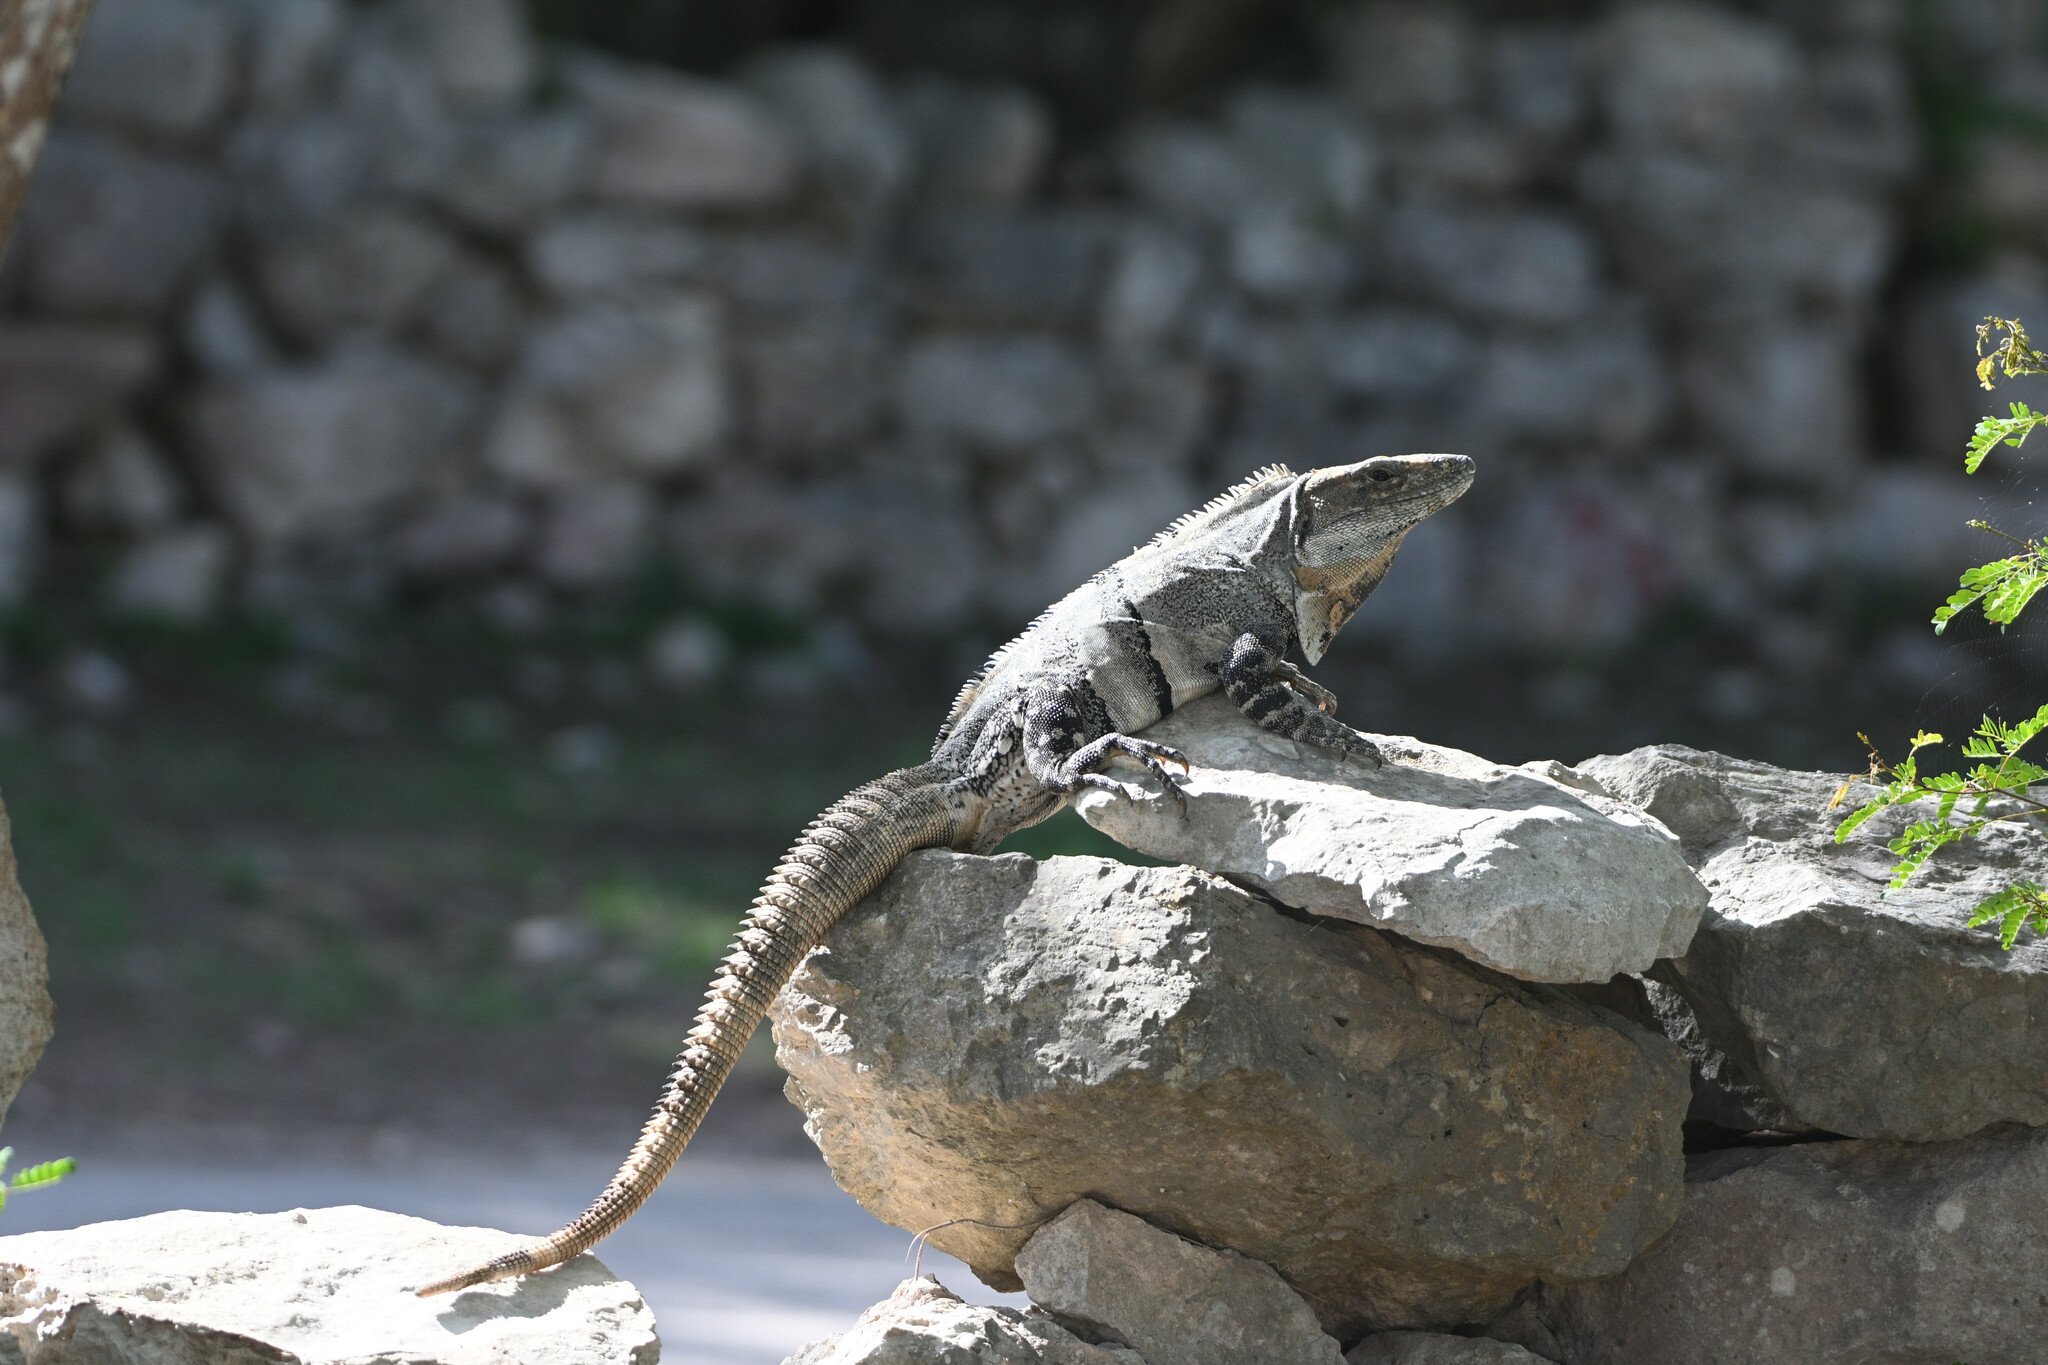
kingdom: Animalia
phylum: Chordata
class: Squamata
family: Iguanidae
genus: Ctenosaura
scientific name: Ctenosaura similis
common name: Black spiny-tailed iguana
